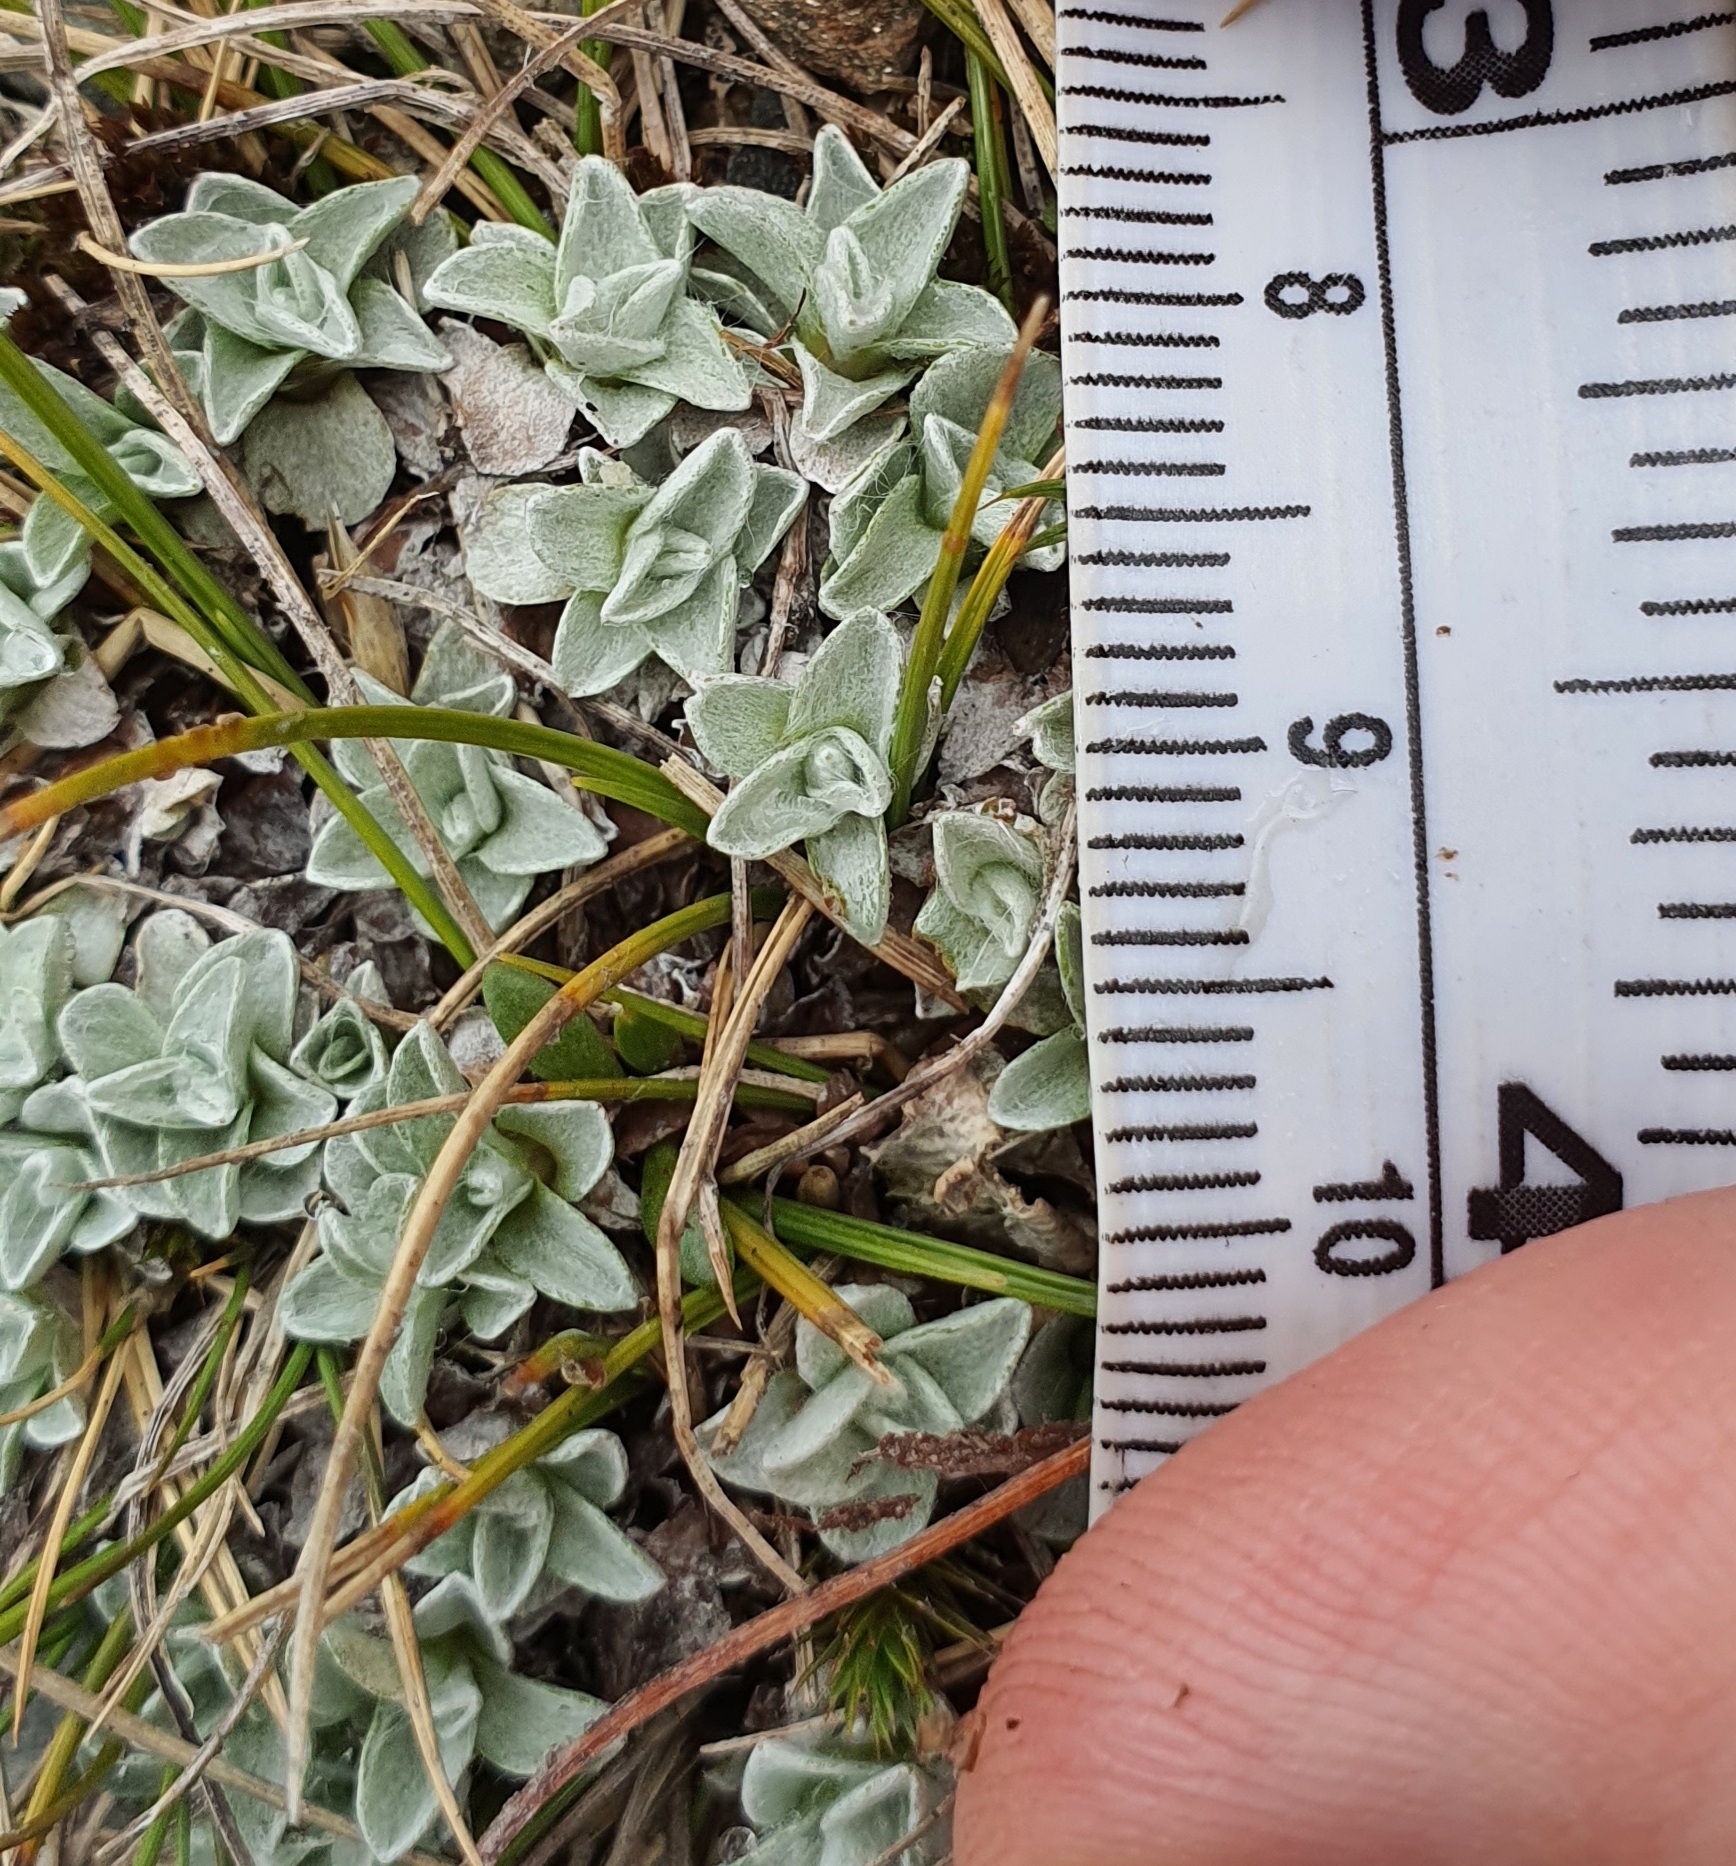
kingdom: Plantae
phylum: Tracheophyta
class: Magnoliopsida
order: Asterales
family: Asteraceae
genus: Argyrotegium
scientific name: Argyrotegium mackayi
